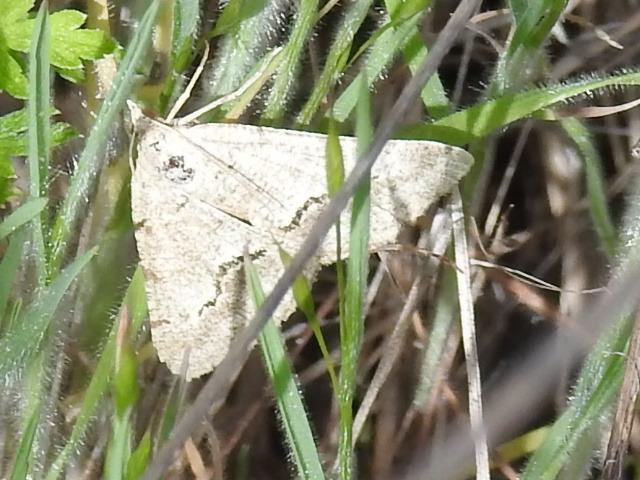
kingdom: Animalia
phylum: Arthropoda
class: Insecta
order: Lepidoptera
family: Geometridae
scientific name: Geometridae
